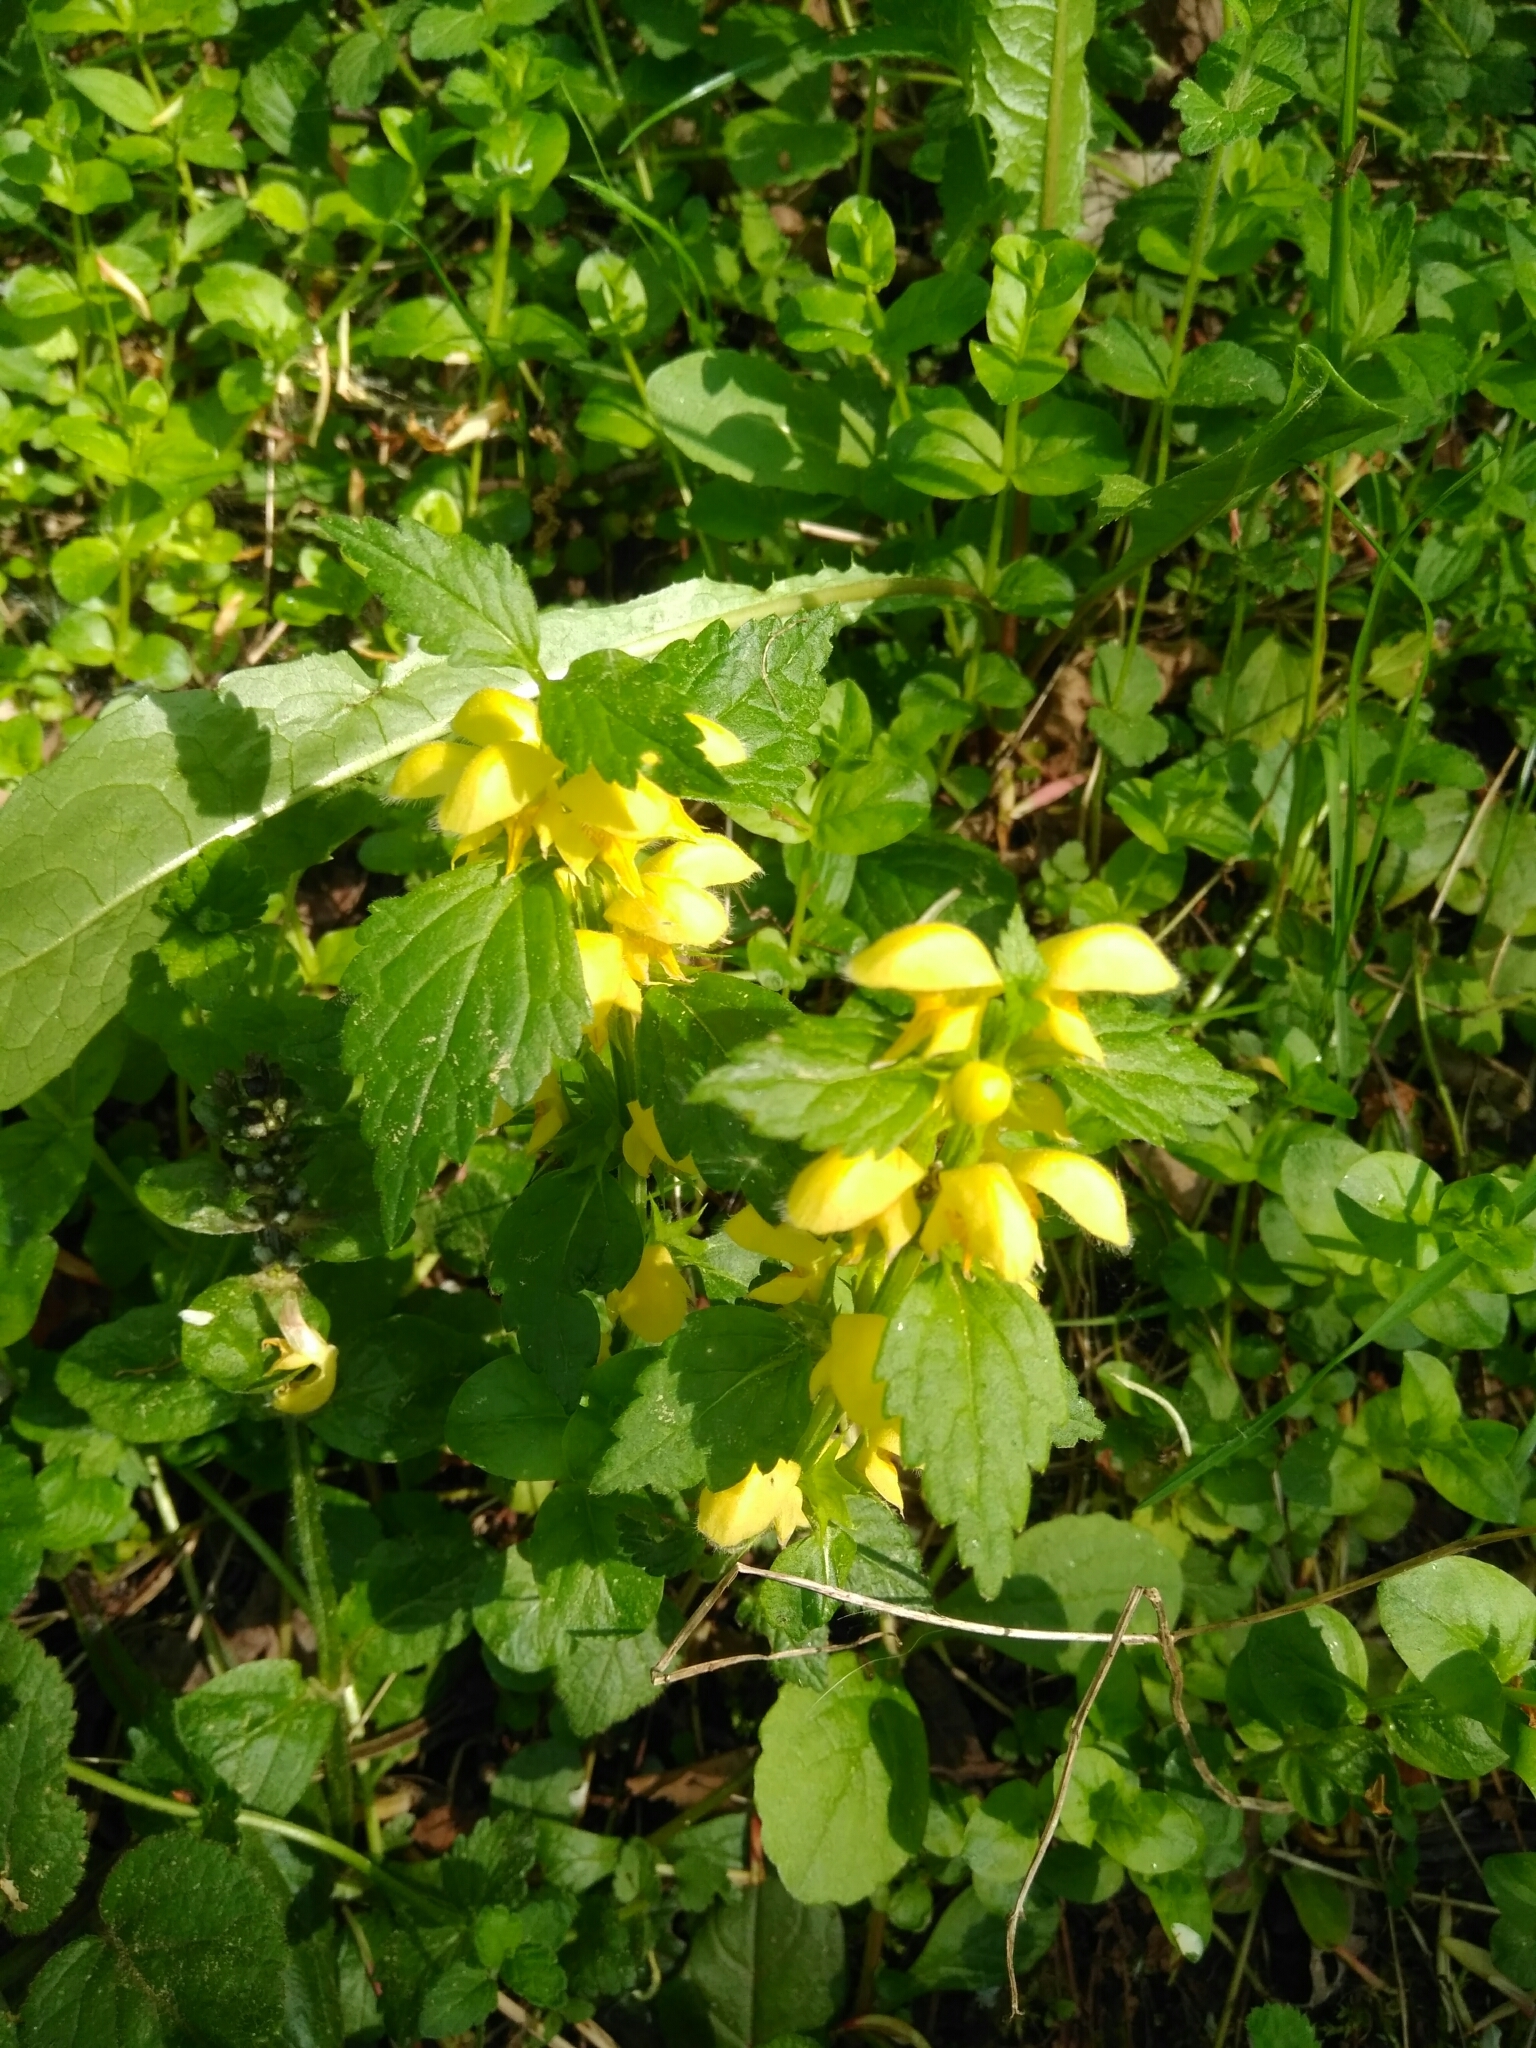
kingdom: Plantae
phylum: Tracheophyta
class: Magnoliopsida
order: Lamiales
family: Lamiaceae
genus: Lamium
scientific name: Lamium galeobdolon
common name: Yellow archangel
